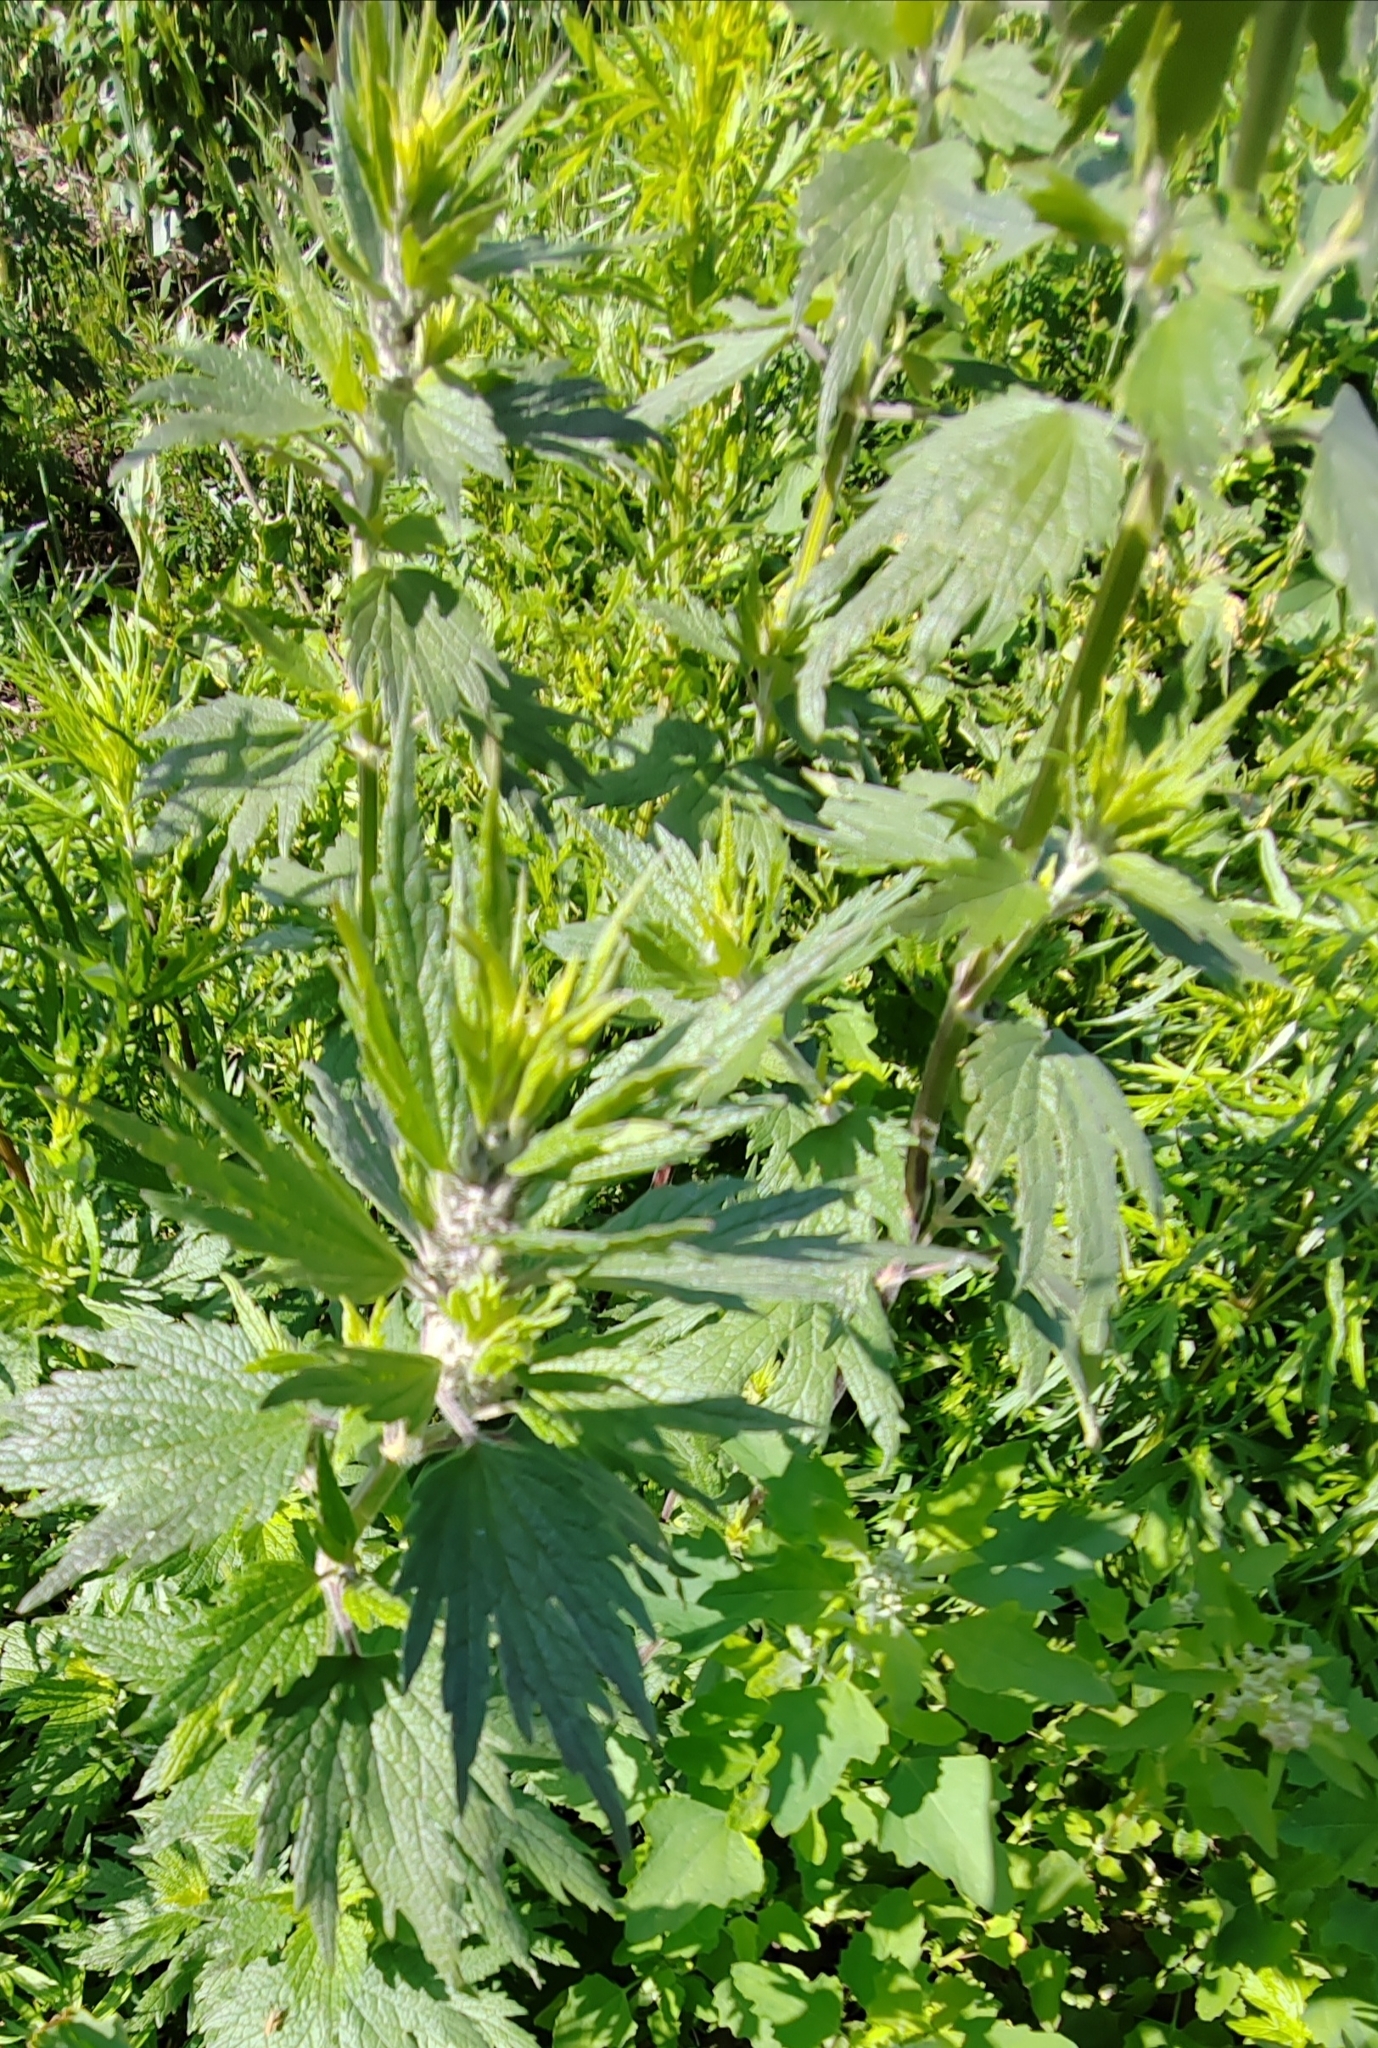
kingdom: Plantae
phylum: Tracheophyta
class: Magnoliopsida
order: Lamiales
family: Lamiaceae
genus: Leonurus
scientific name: Leonurus quinquelobatus
